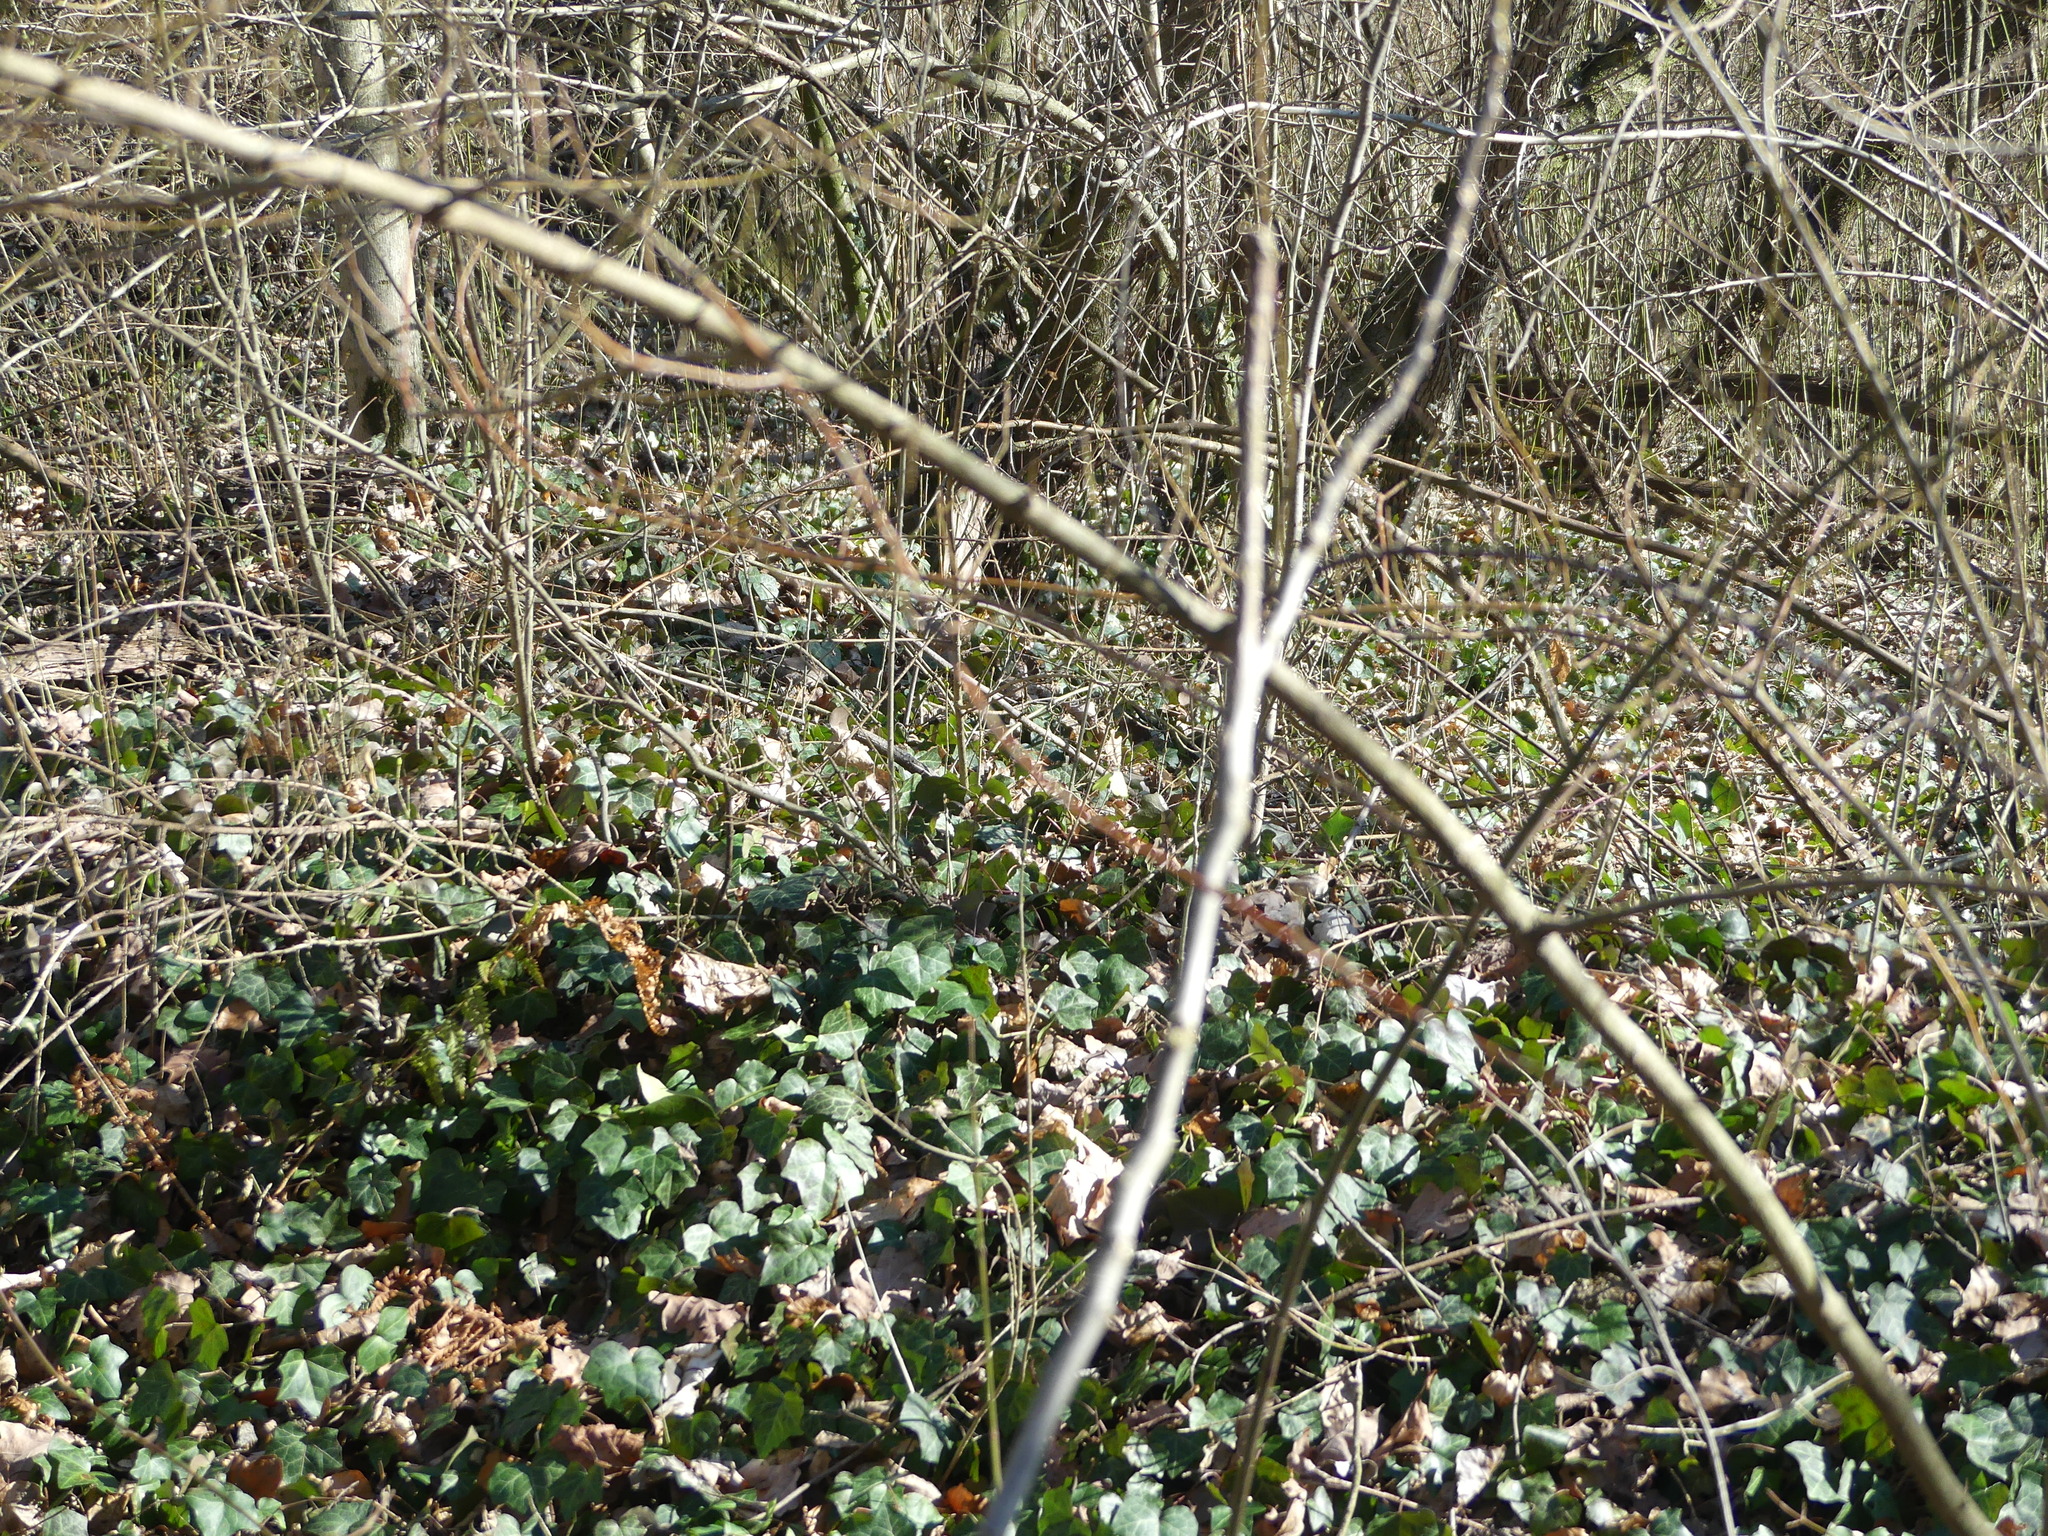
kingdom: Plantae
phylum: Tracheophyta
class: Magnoliopsida
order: Apiales
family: Araliaceae
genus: Hedera
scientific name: Hedera helix
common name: Ivy
